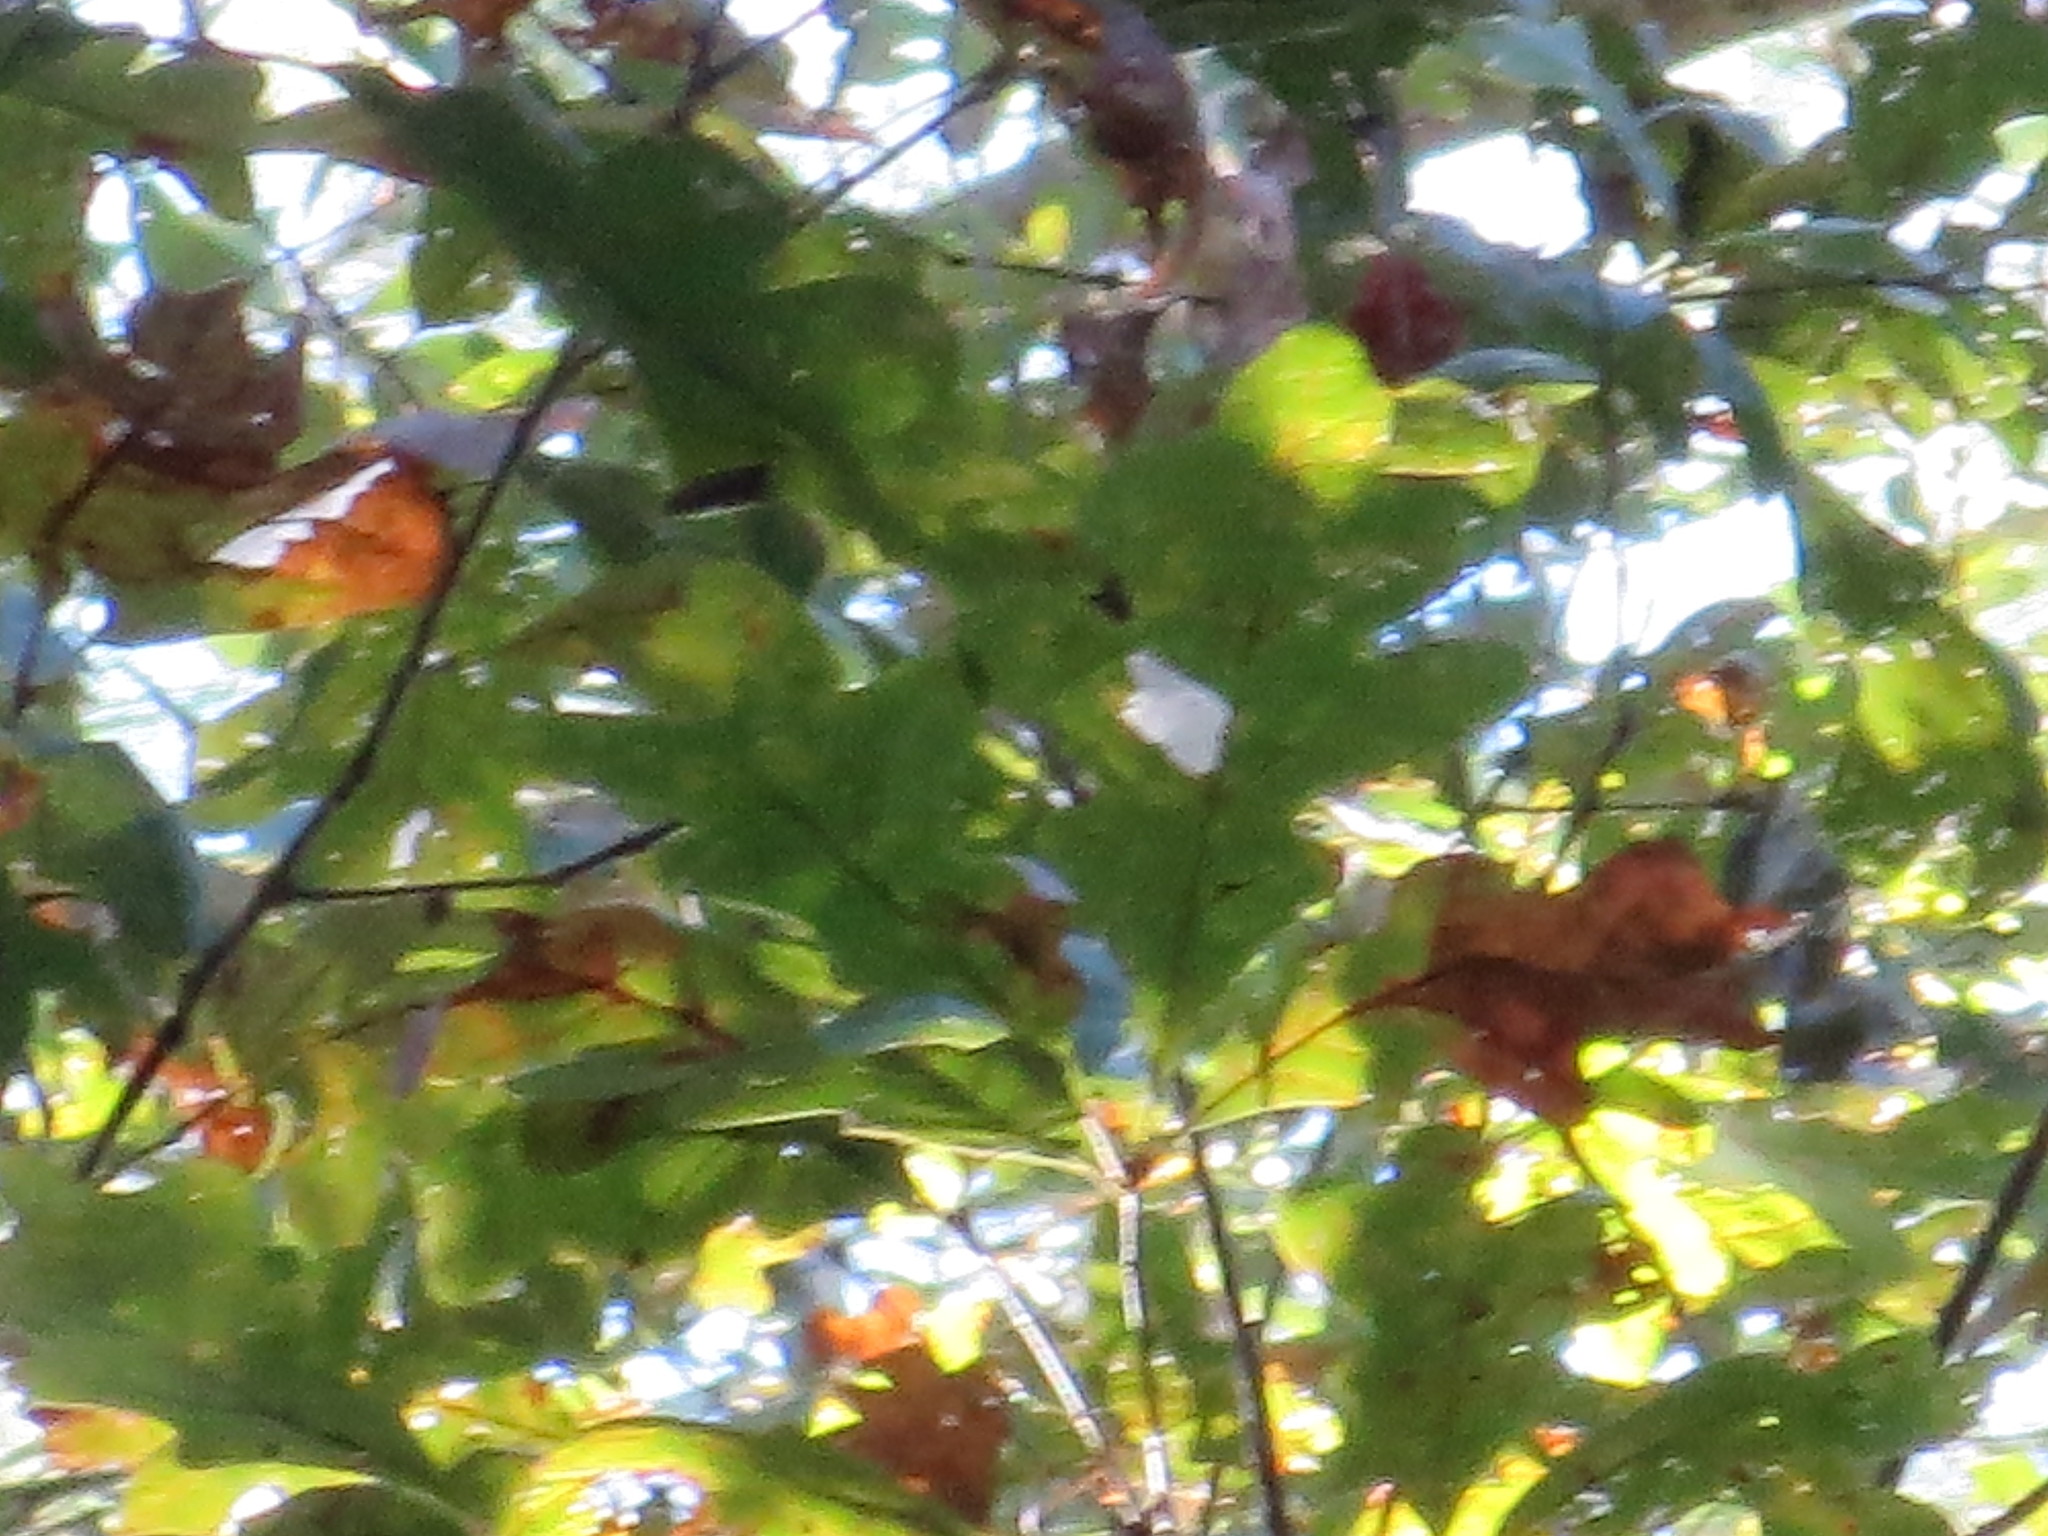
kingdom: Plantae
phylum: Tracheophyta
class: Magnoliopsida
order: Fagales
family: Fagaceae
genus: Quercus
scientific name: Quercus alba
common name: White oak
